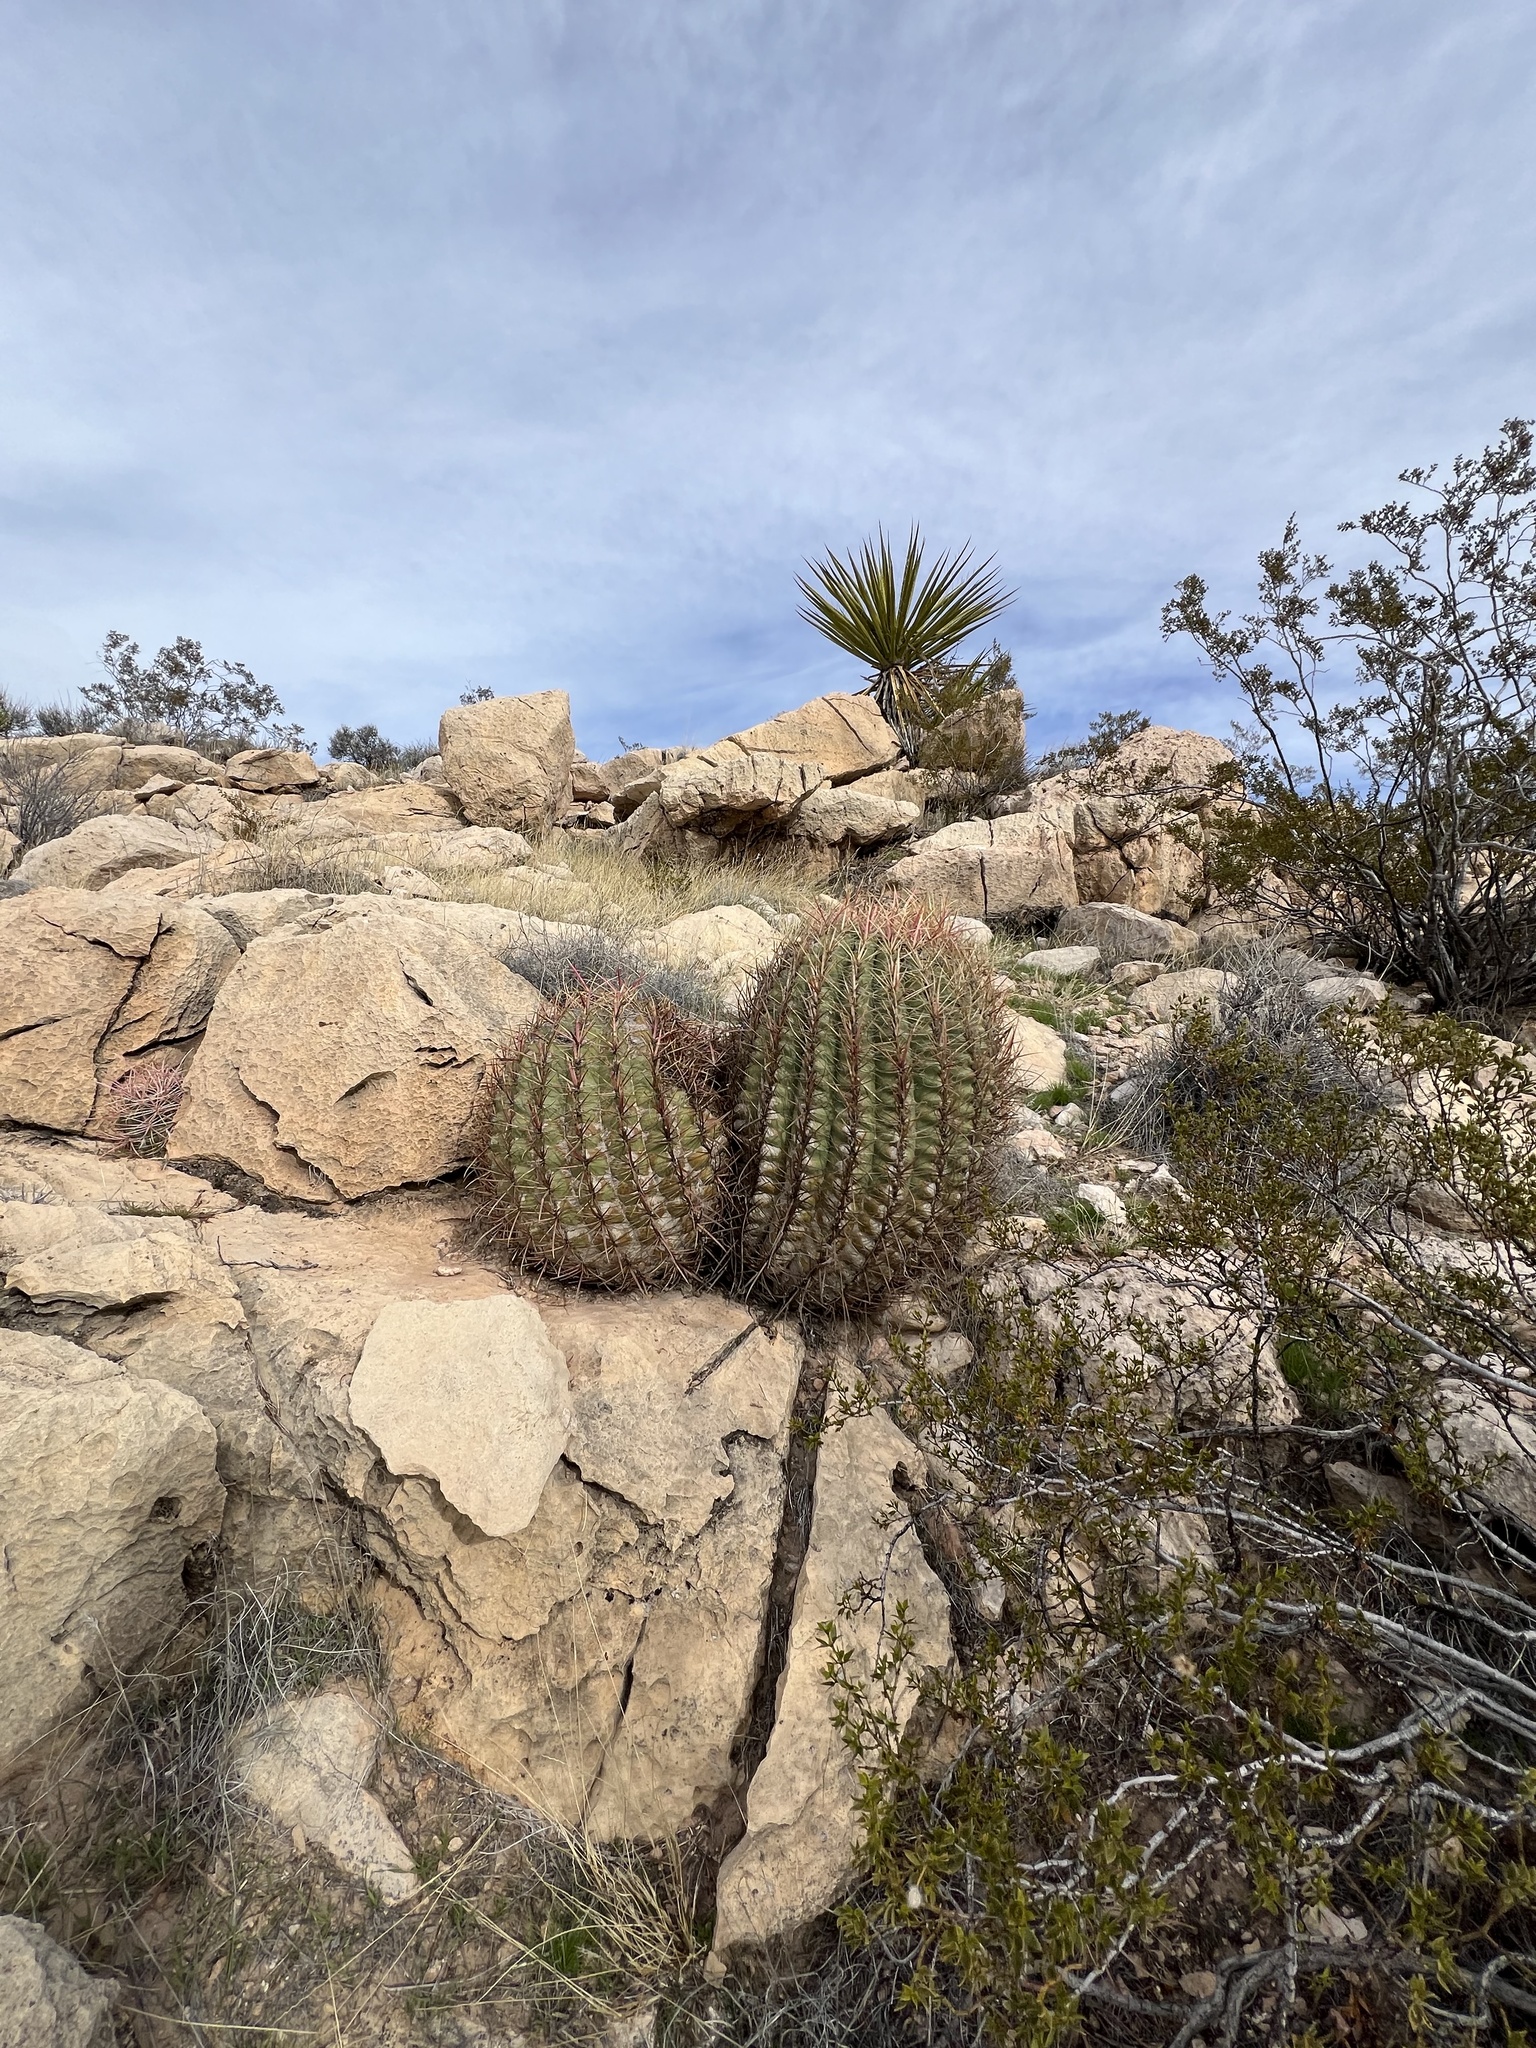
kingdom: Plantae
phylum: Tracheophyta
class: Magnoliopsida
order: Caryophyllales
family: Cactaceae
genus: Ferocactus
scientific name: Ferocactus cylindraceus
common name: California barrel cactus
